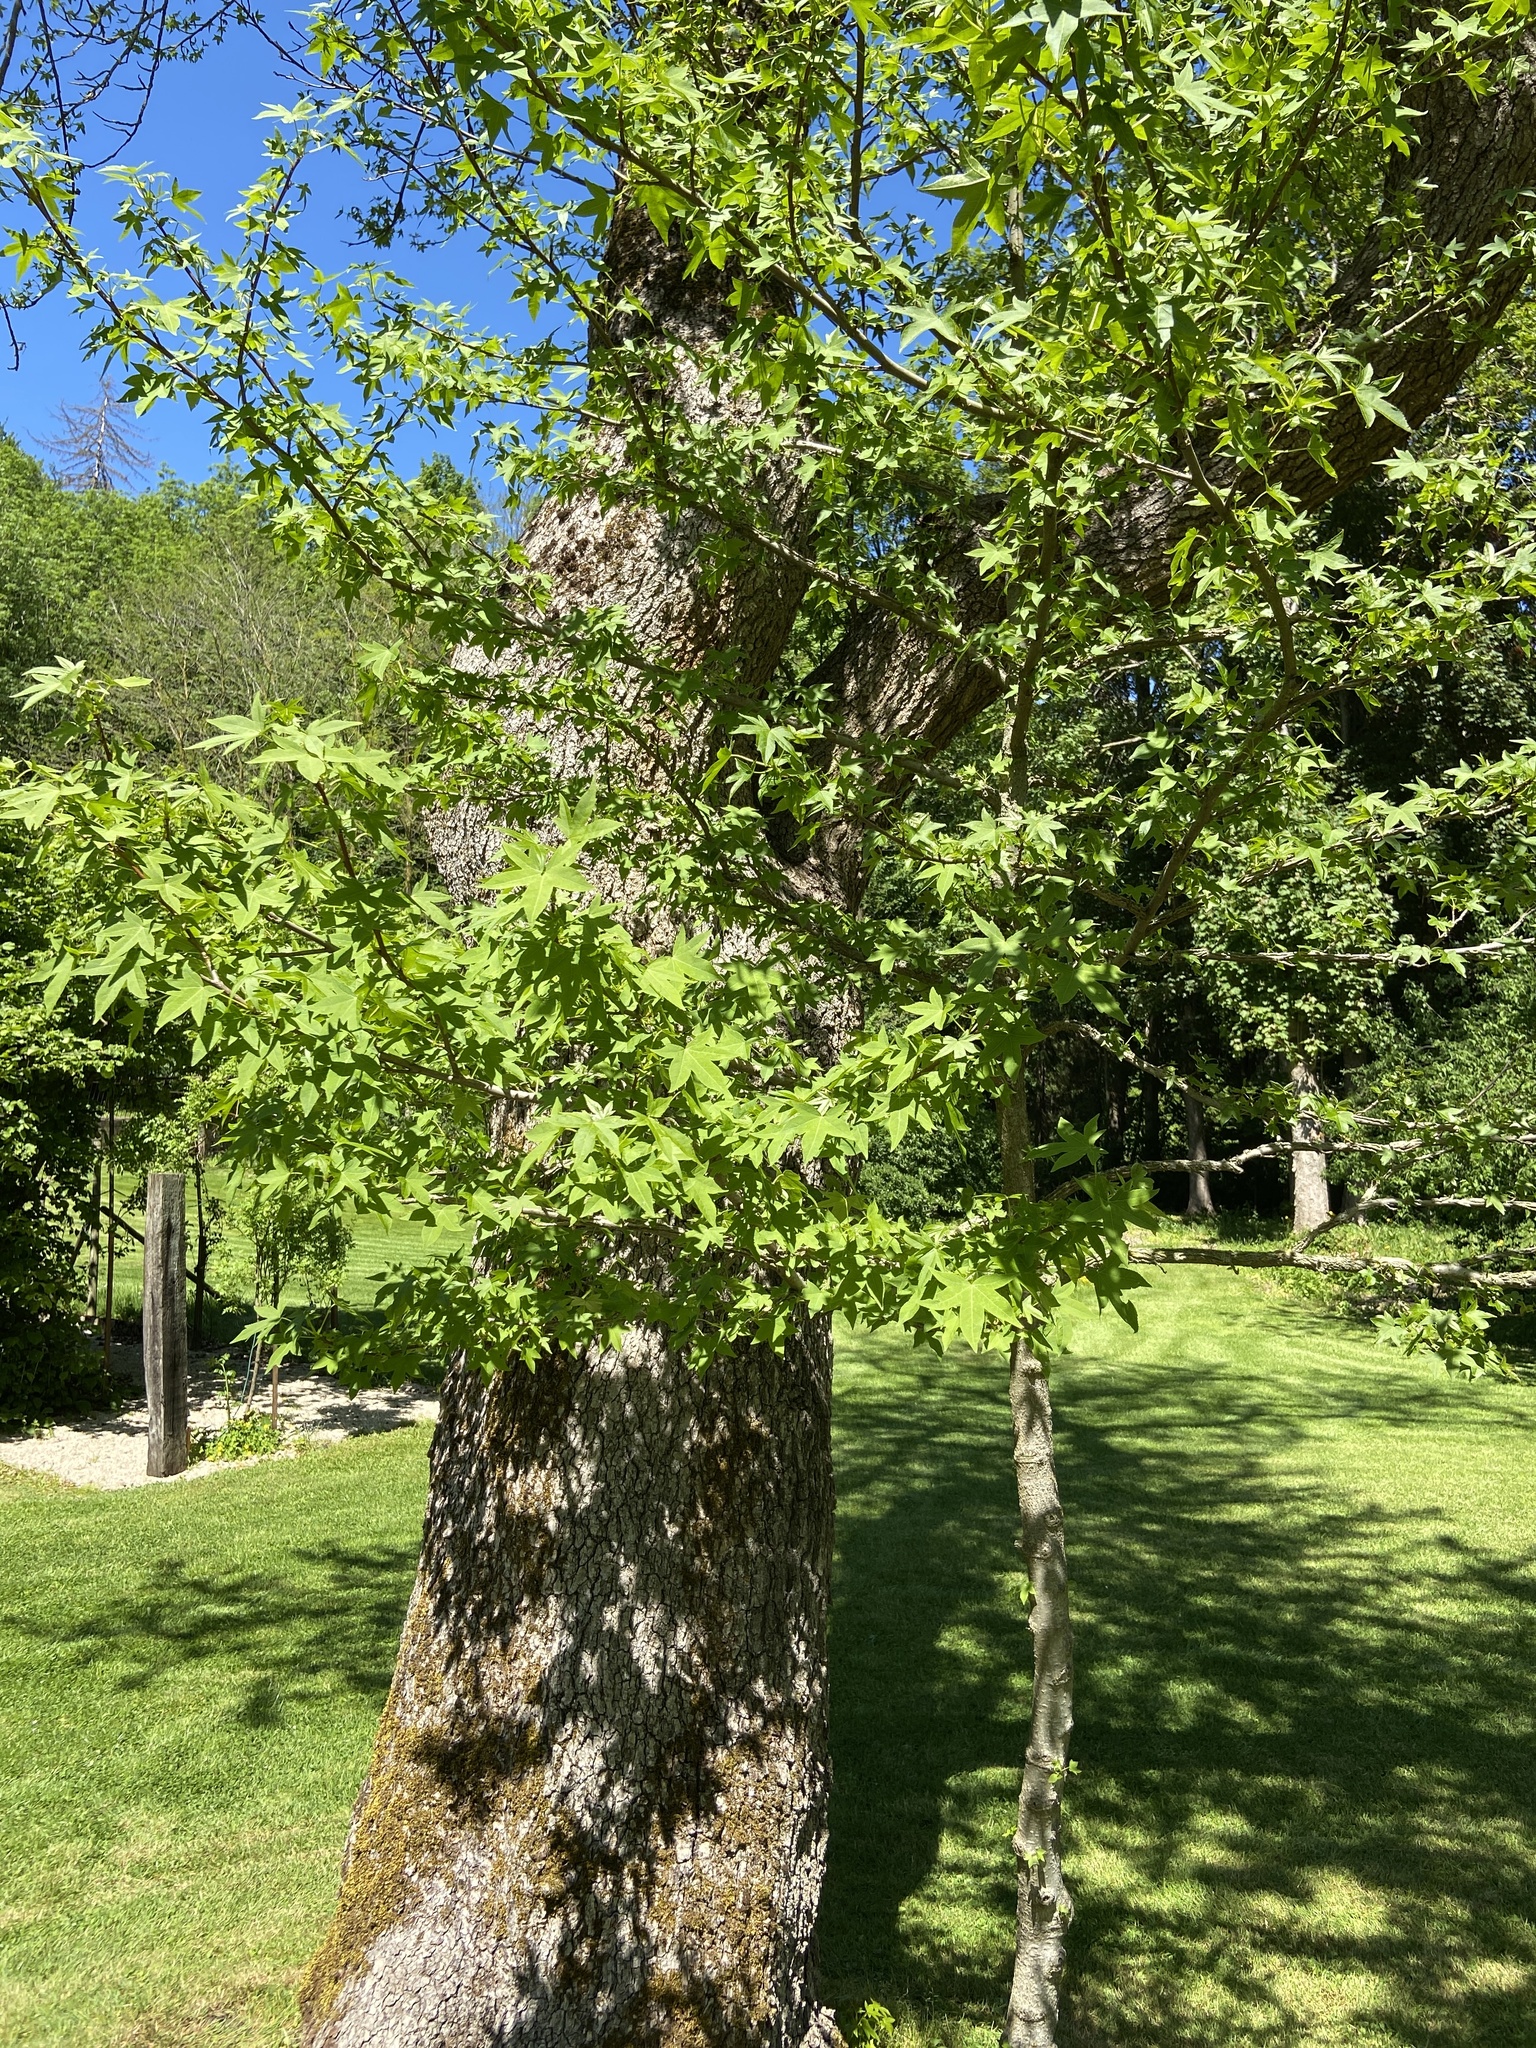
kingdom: Plantae
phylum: Tracheophyta
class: Magnoliopsida
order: Saxifragales
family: Altingiaceae
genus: Liquidambar
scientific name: Liquidambar styraciflua
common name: Sweet gum
